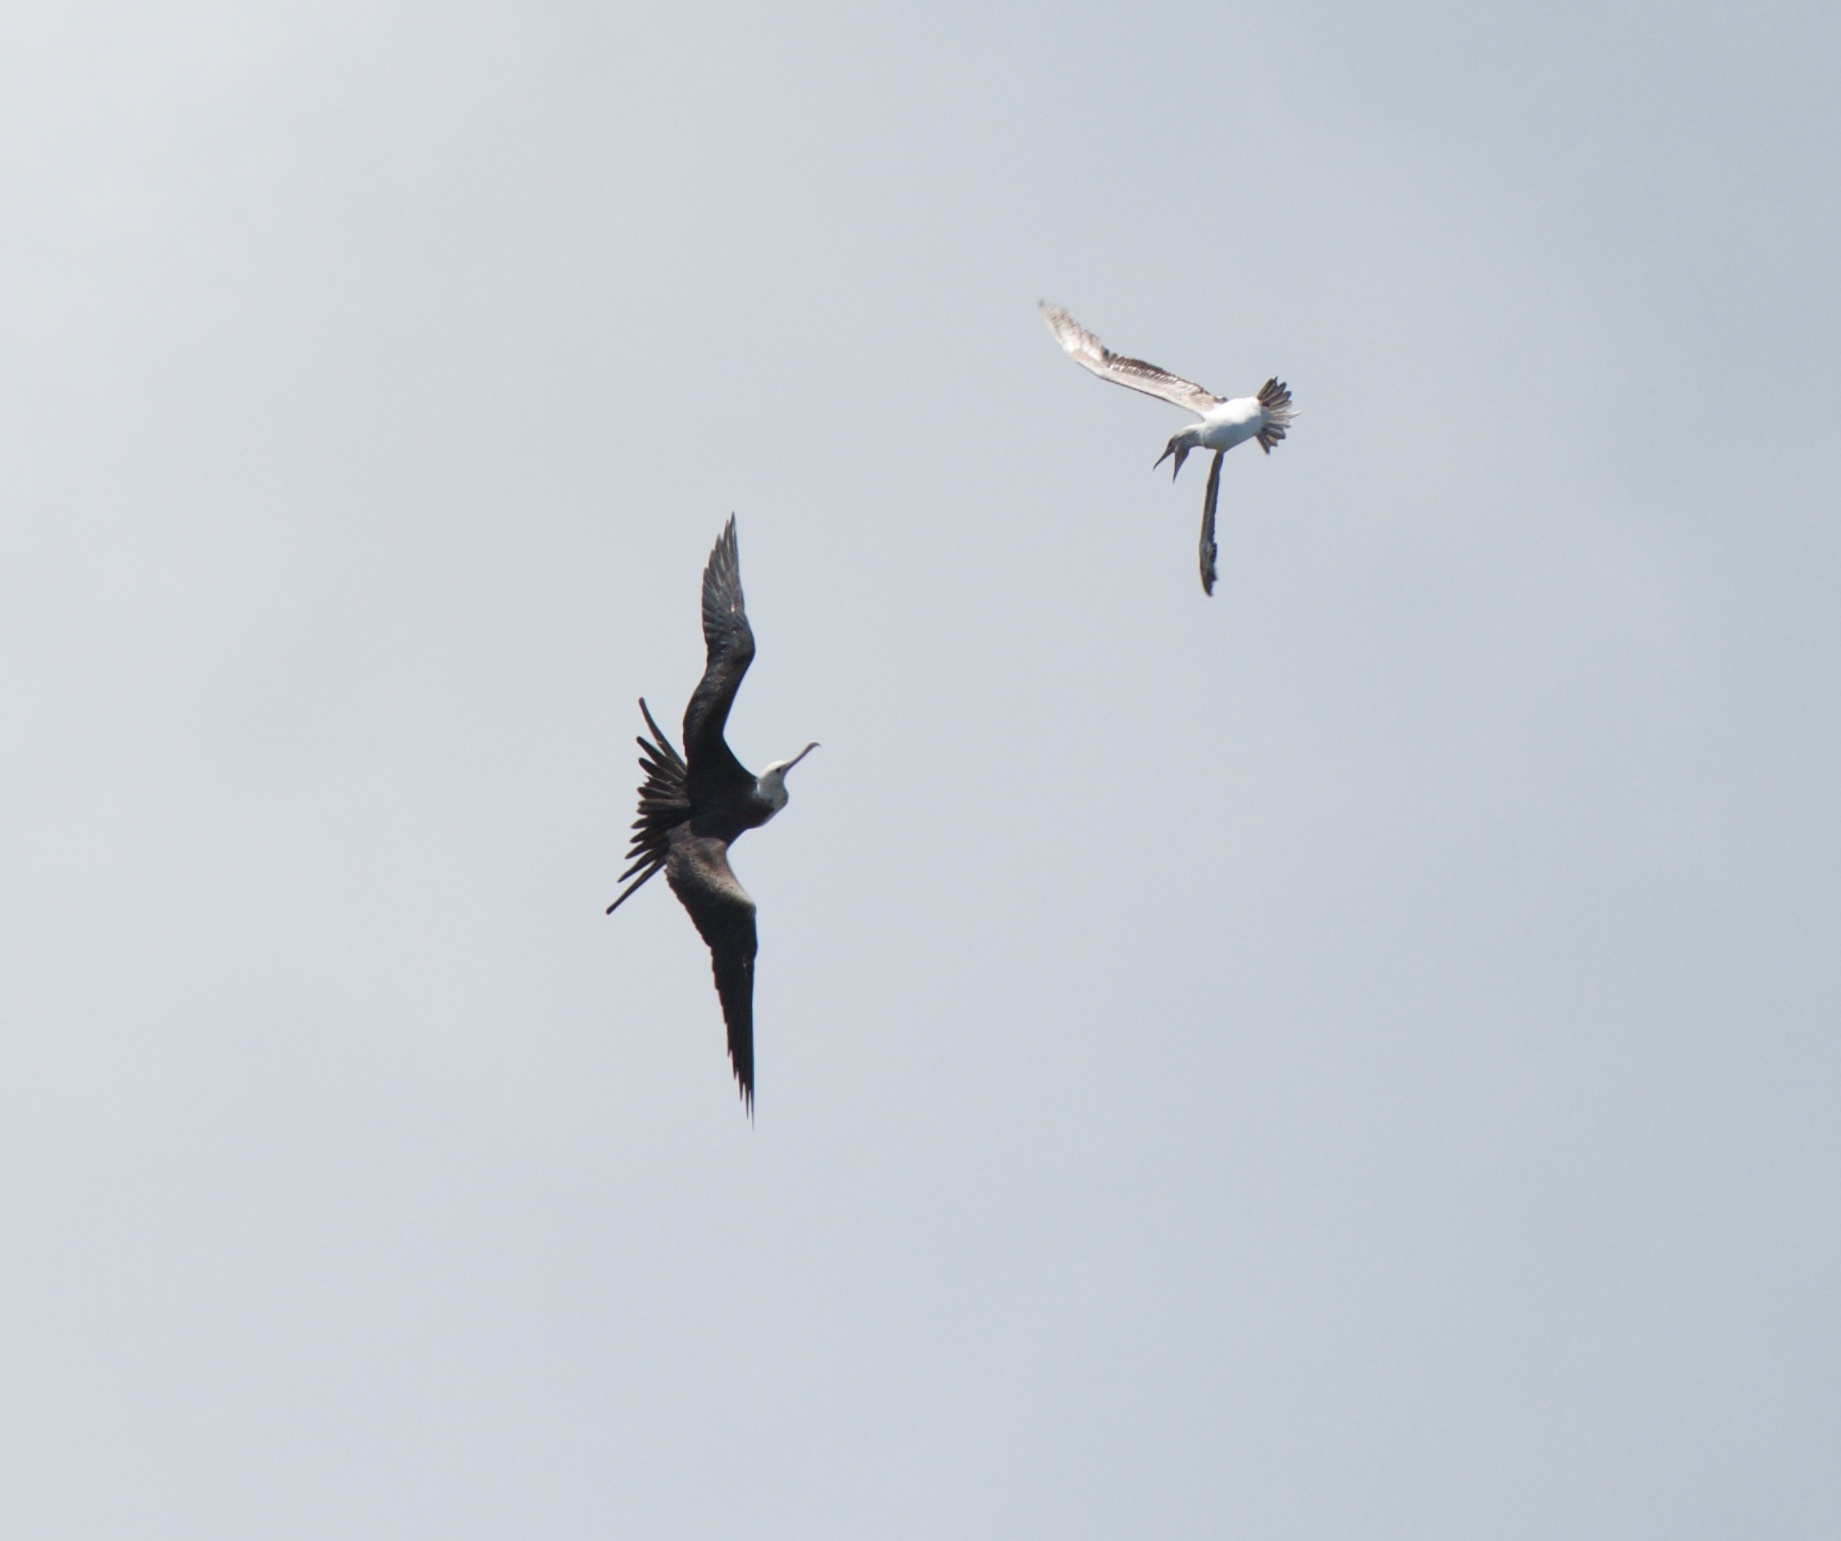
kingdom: Animalia
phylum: Chordata
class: Aves
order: Suliformes
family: Fregatidae
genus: Fregata
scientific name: Fregata minor
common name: Great frigatebird
